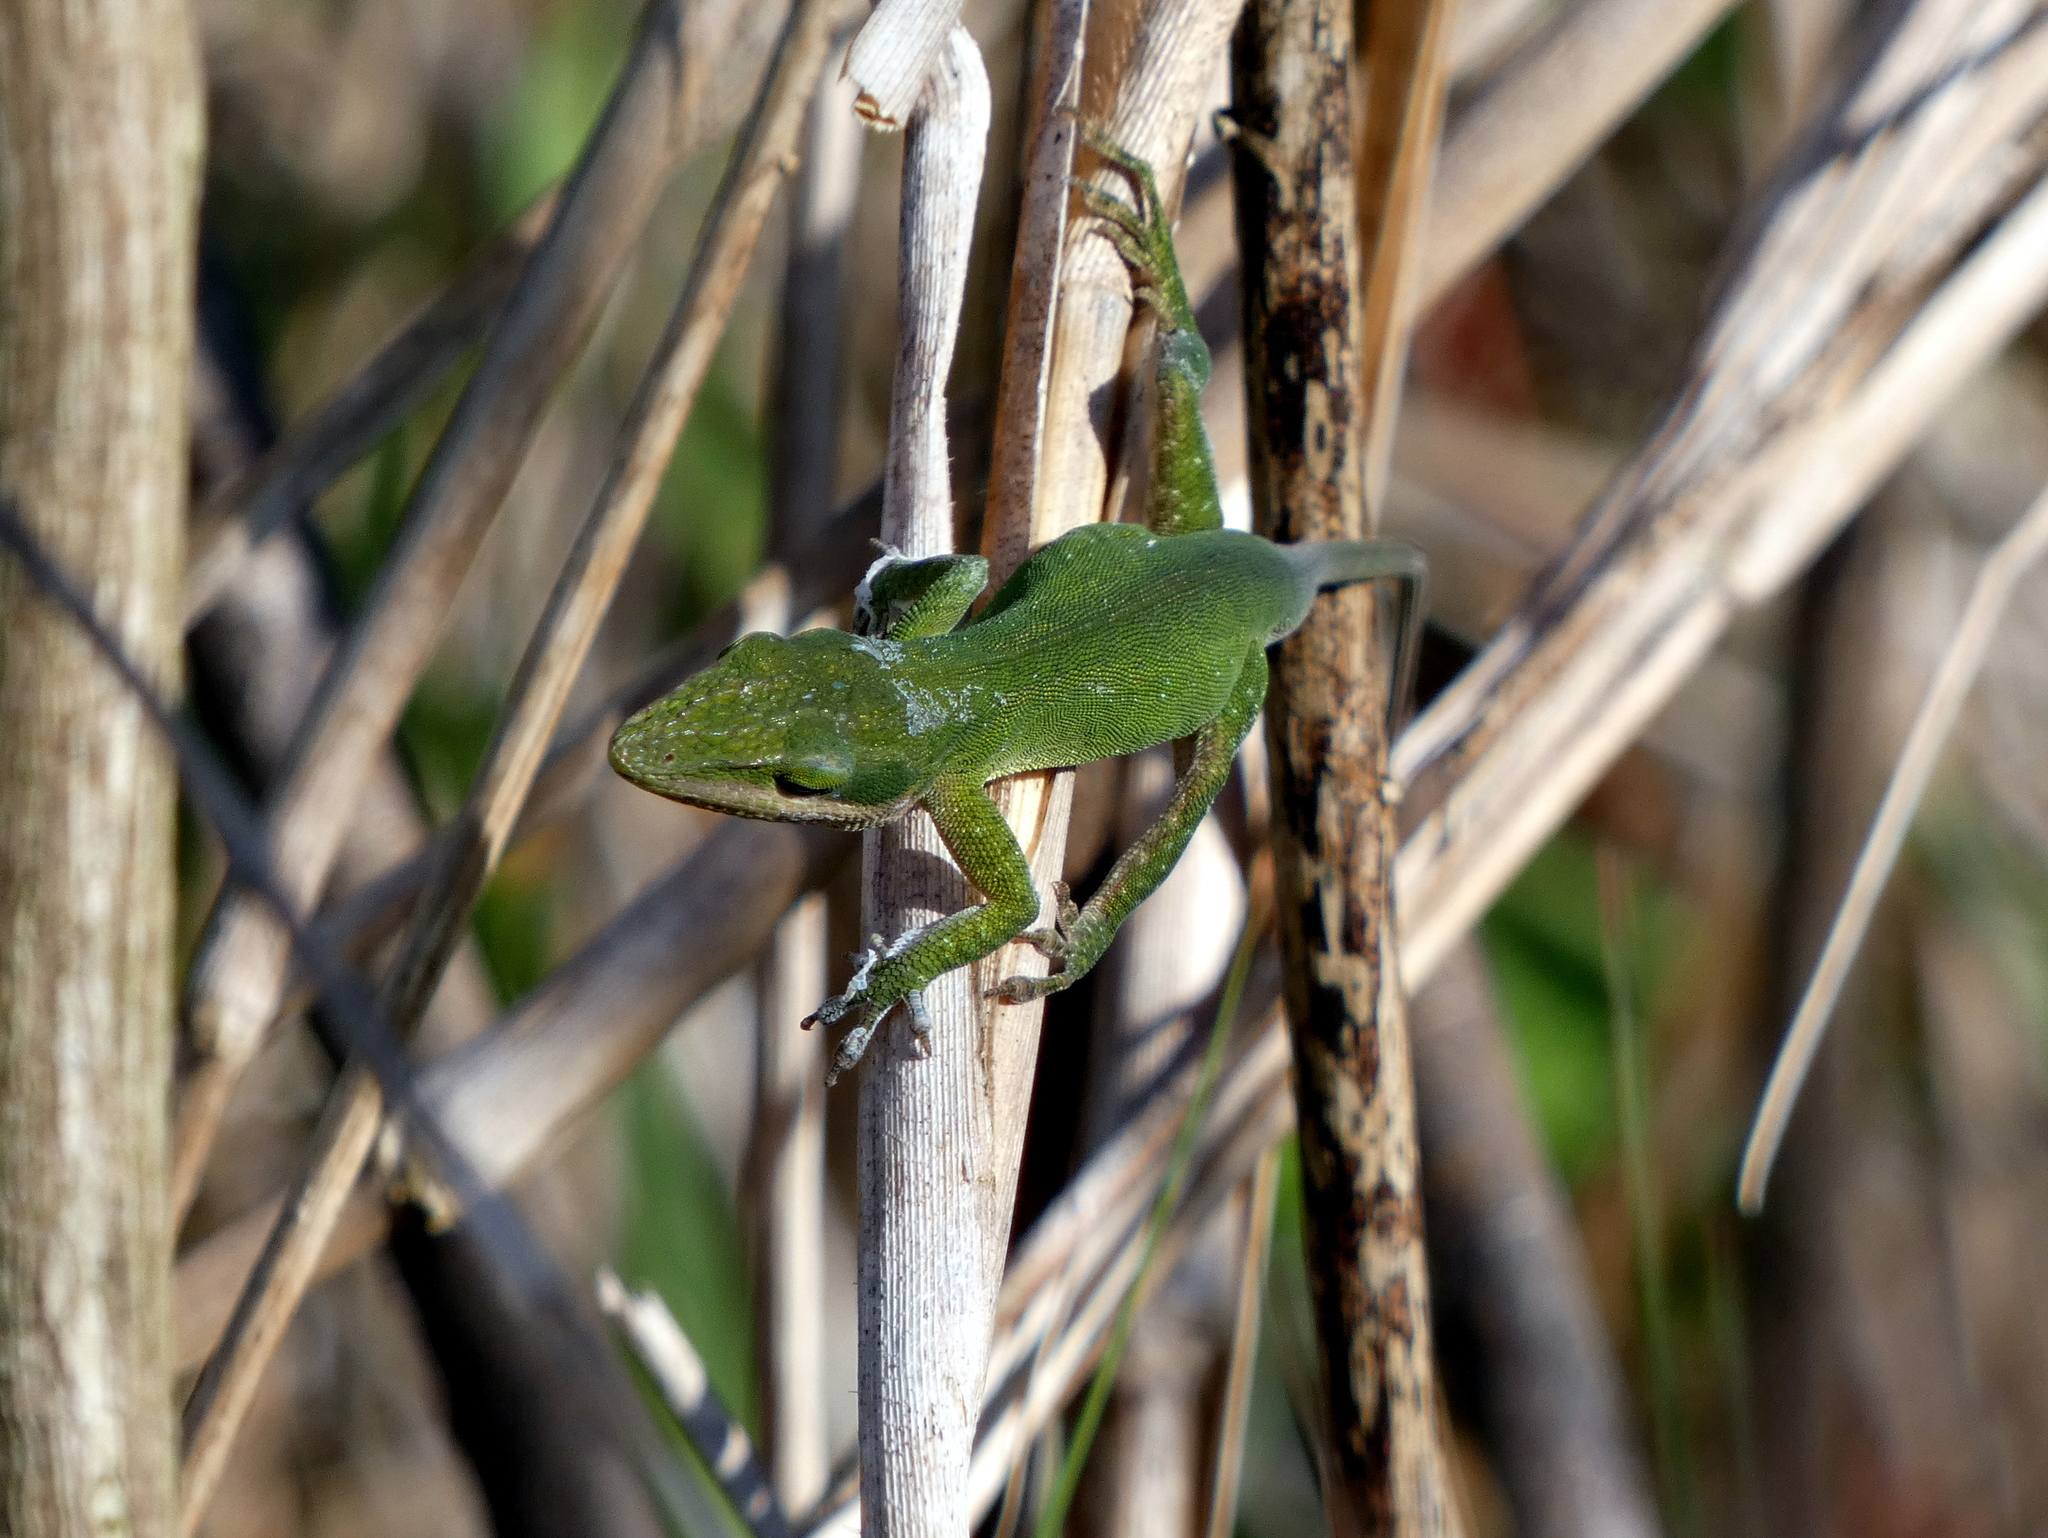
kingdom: Animalia
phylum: Chordata
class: Squamata
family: Dactyloidae
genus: Anolis
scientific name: Anolis carolinensis
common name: Green anole
